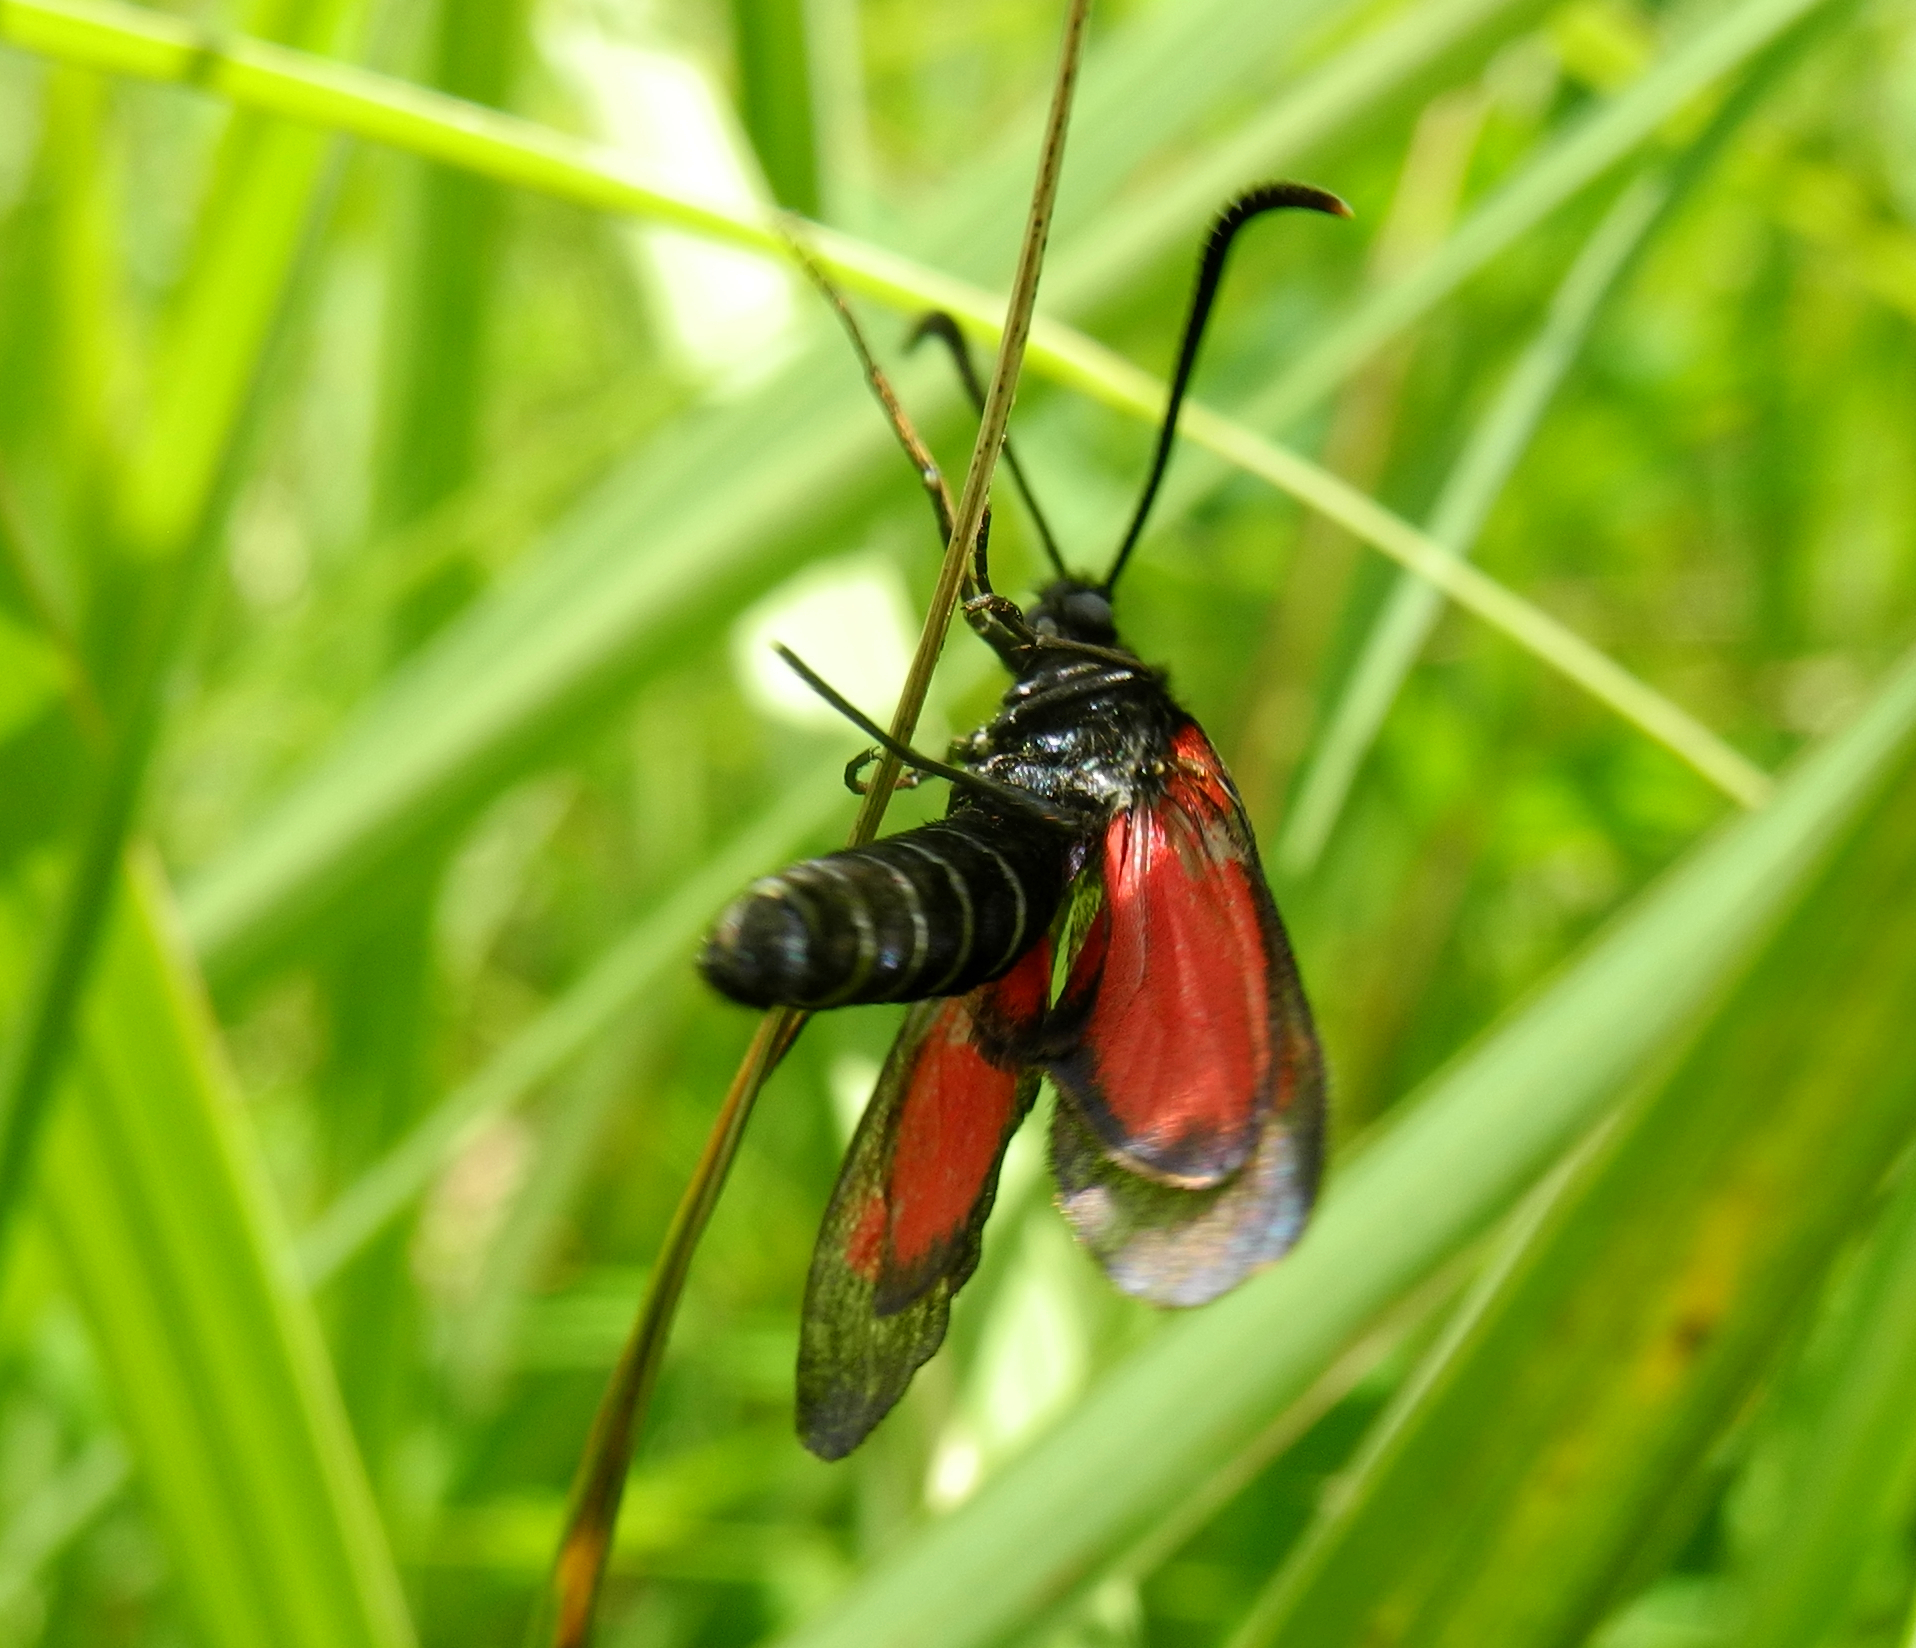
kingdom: Animalia
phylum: Arthropoda
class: Insecta
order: Lepidoptera
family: Zygaenidae
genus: Zygaena
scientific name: Zygaena viciae
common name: New forest burnet
